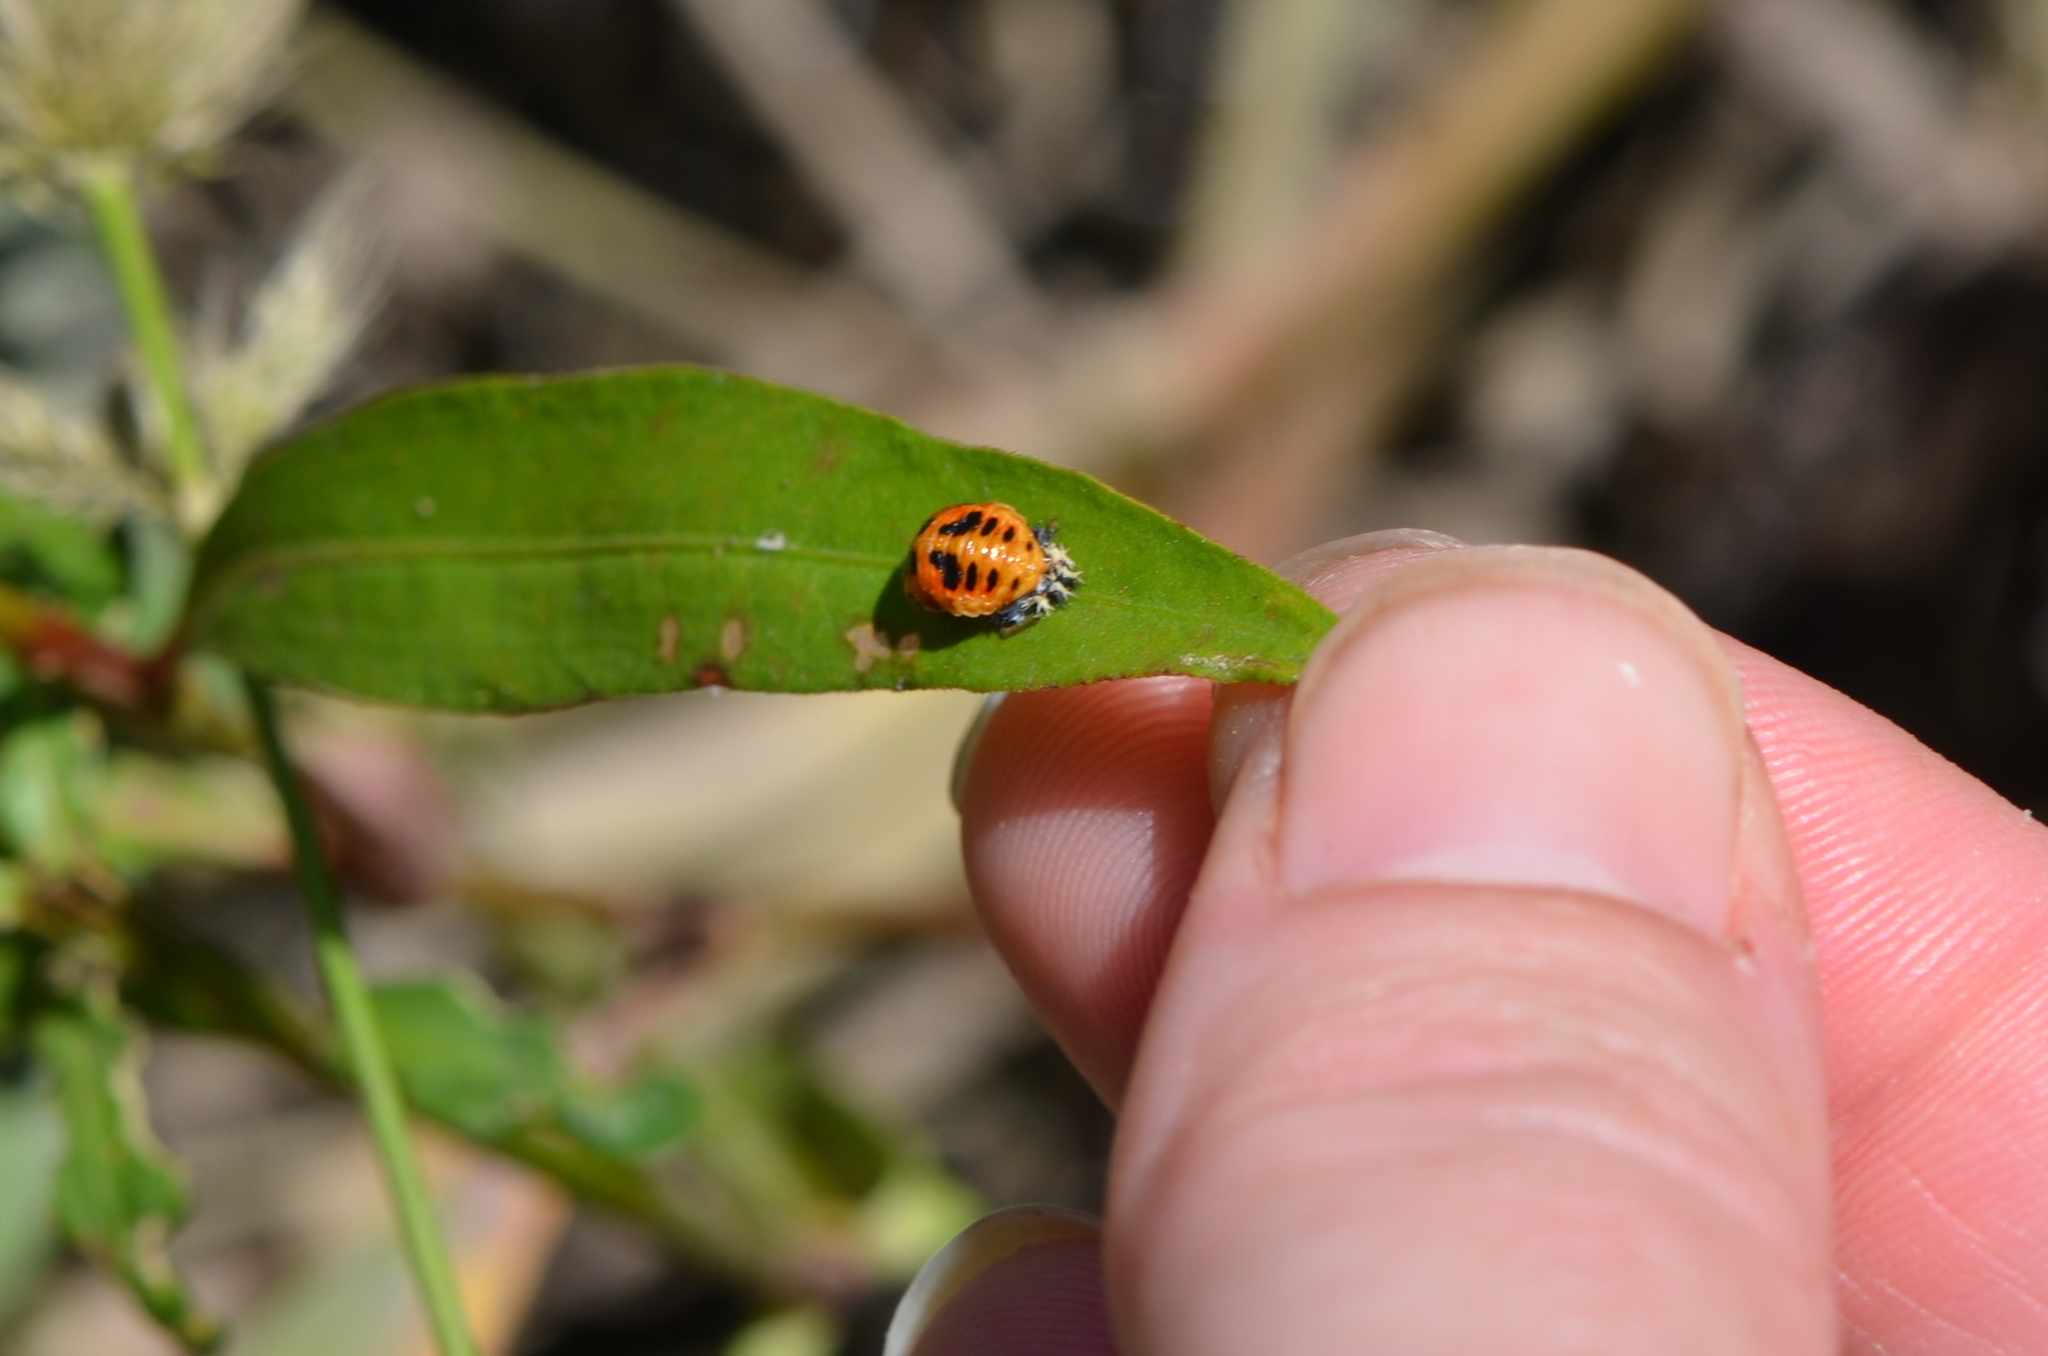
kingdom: Animalia
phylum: Arthropoda
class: Insecta
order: Coleoptera
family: Coccinellidae
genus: Harmonia
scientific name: Harmonia axyridis
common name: Harlequin ladybird
